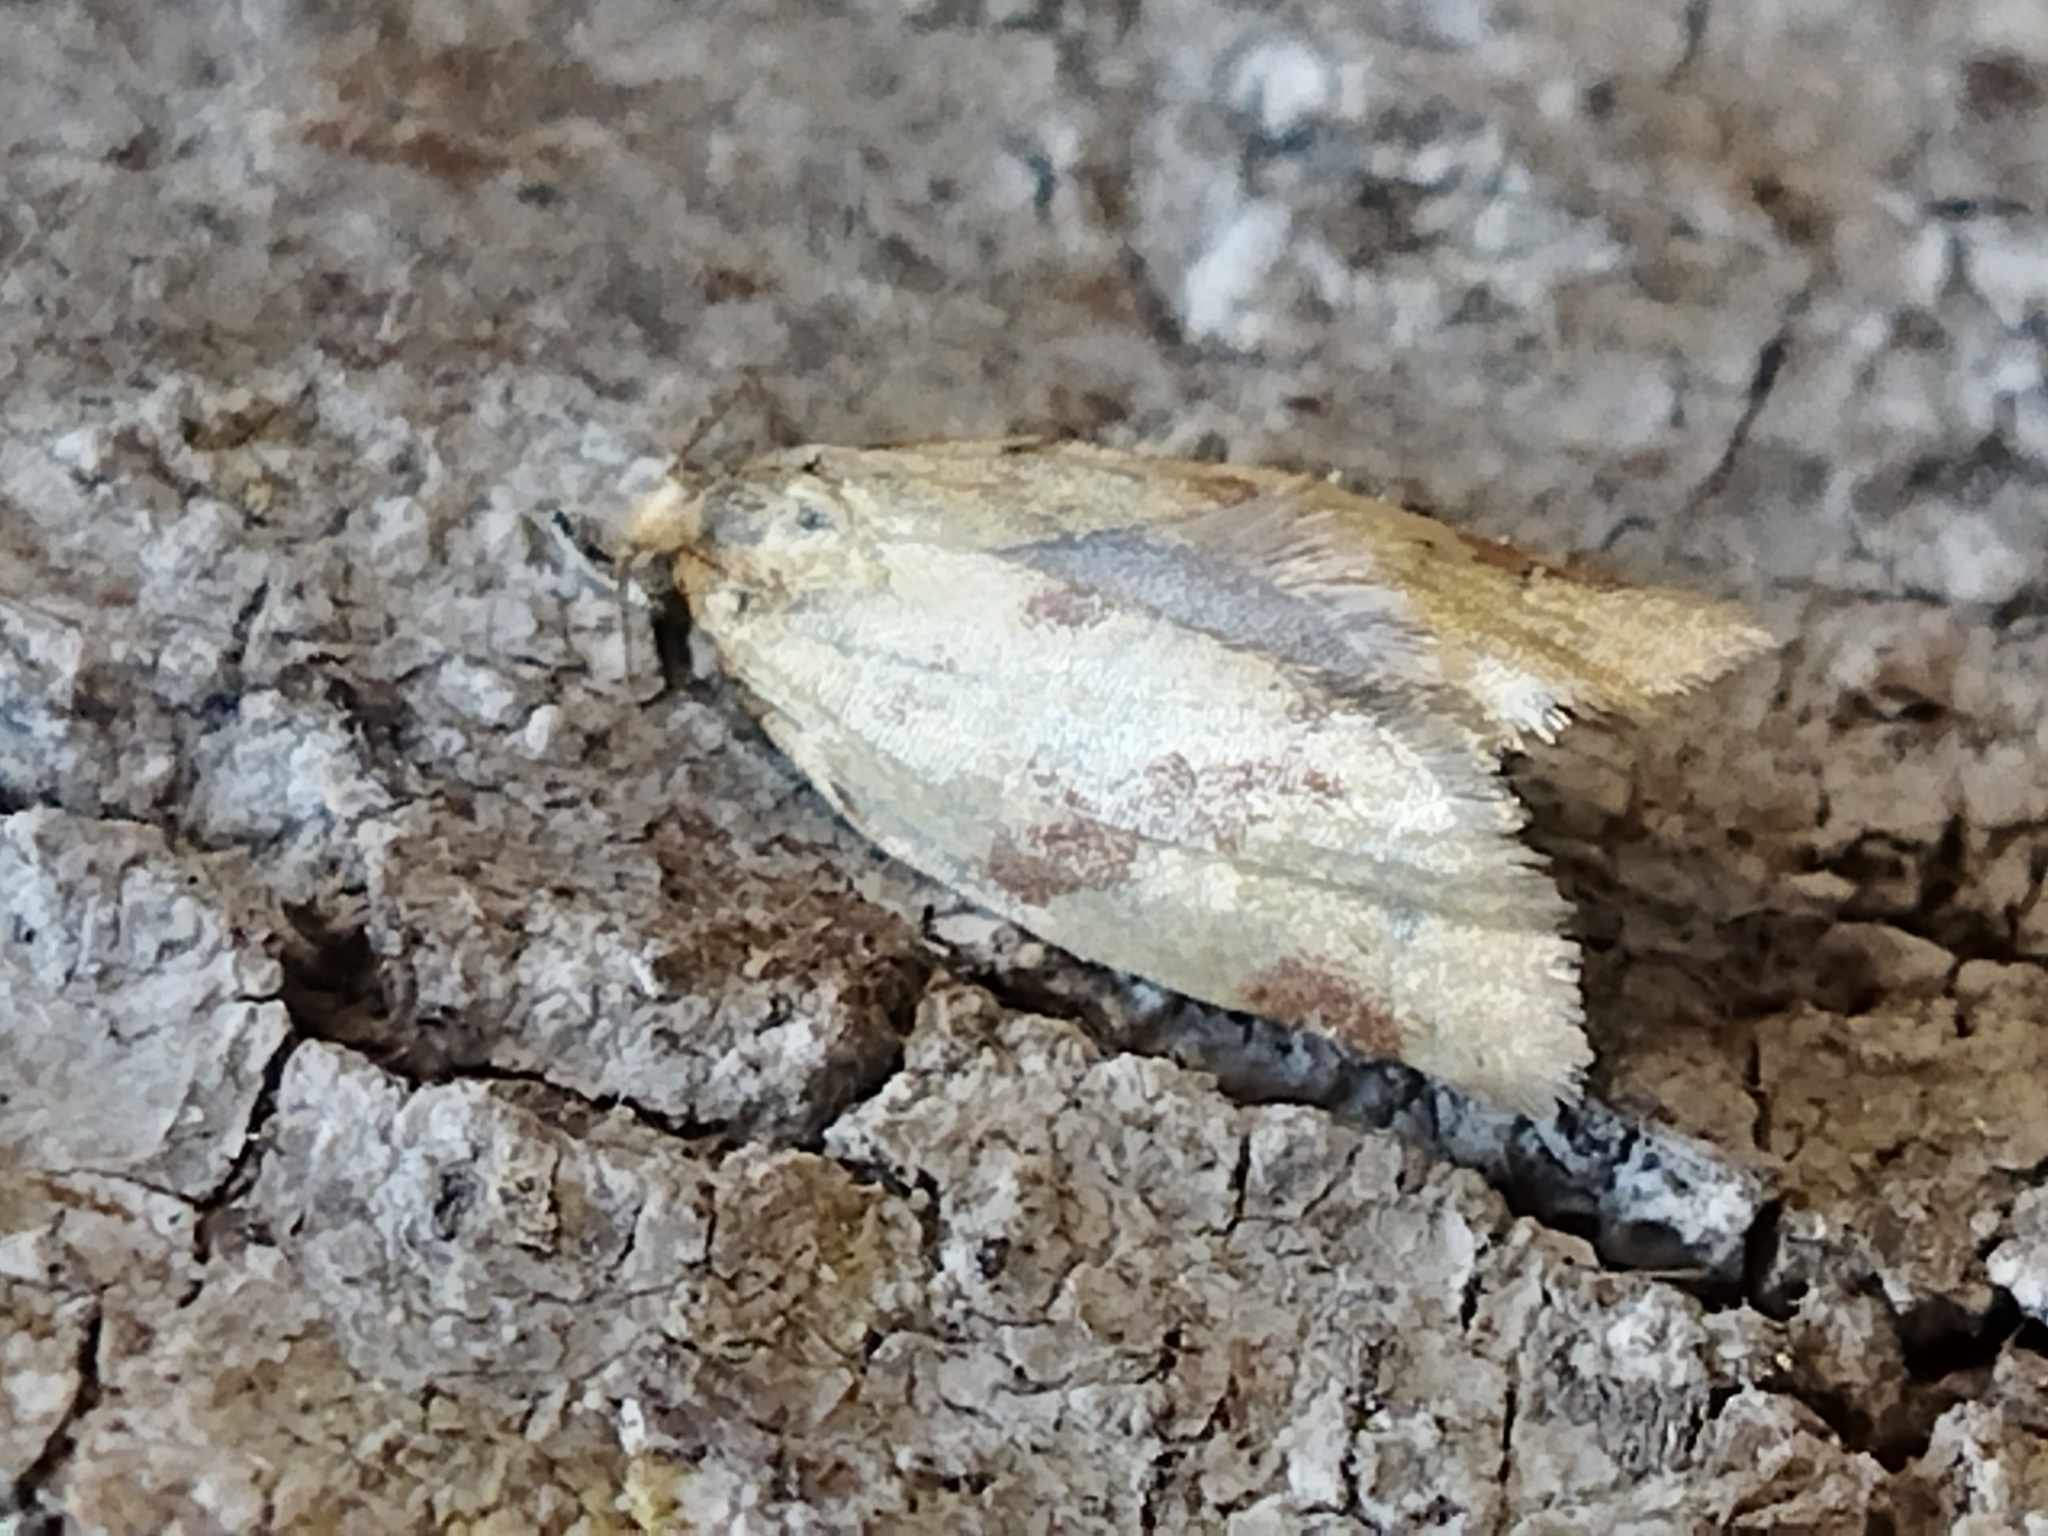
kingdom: Animalia
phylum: Arthropoda
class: Insecta
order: Lepidoptera
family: Tortricidae
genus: Clepsis
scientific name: Clepsis pallidana
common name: Sheep's-bit conch
